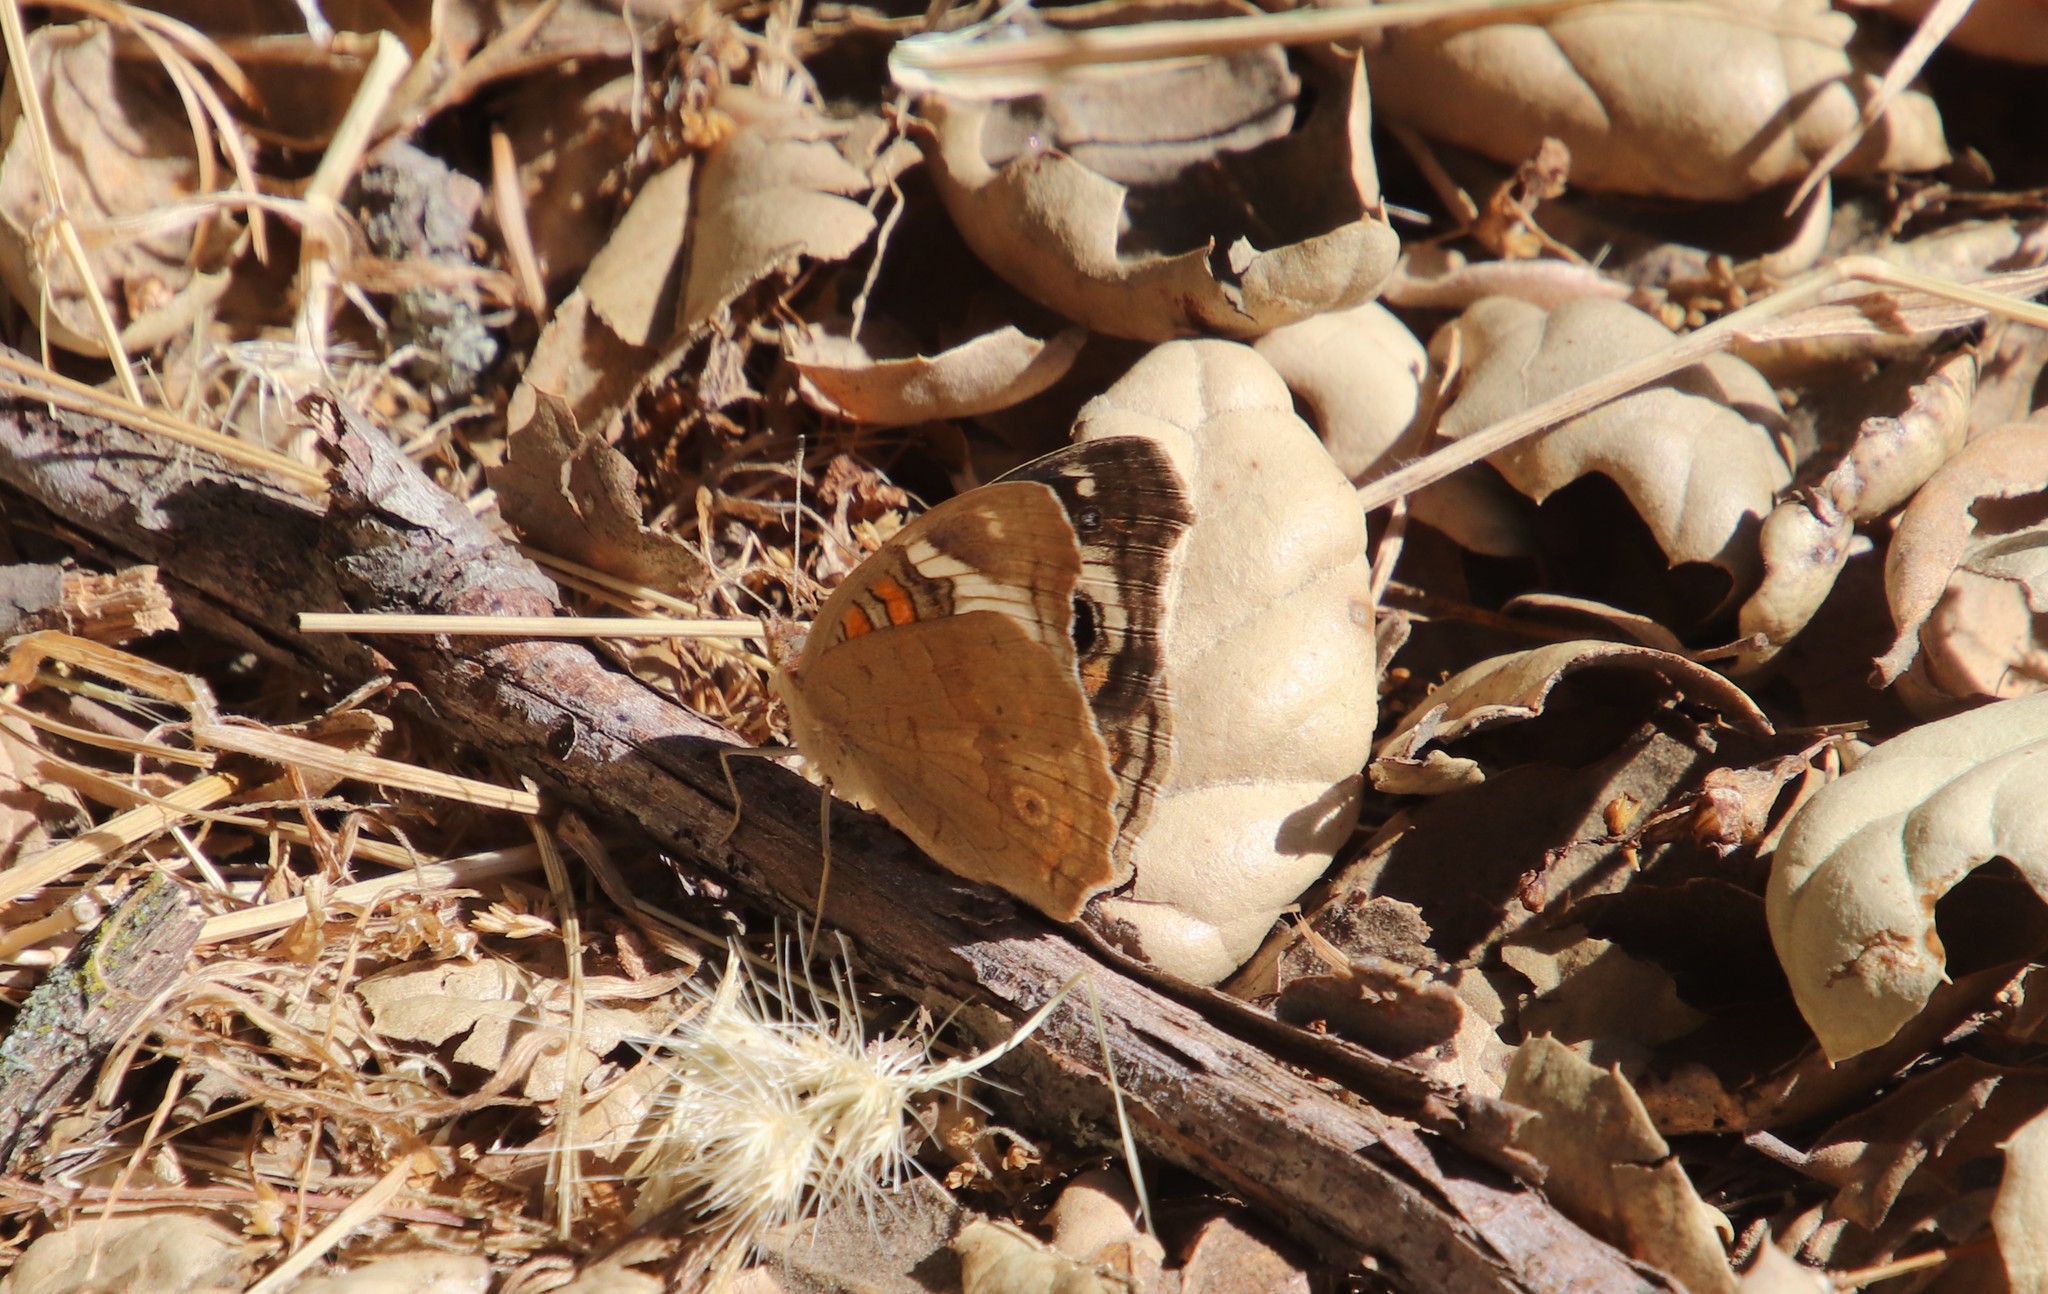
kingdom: Animalia
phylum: Arthropoda
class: Insecta
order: Lepidoptera
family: Nymphalidae
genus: Junonia
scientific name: Junonia grisea
